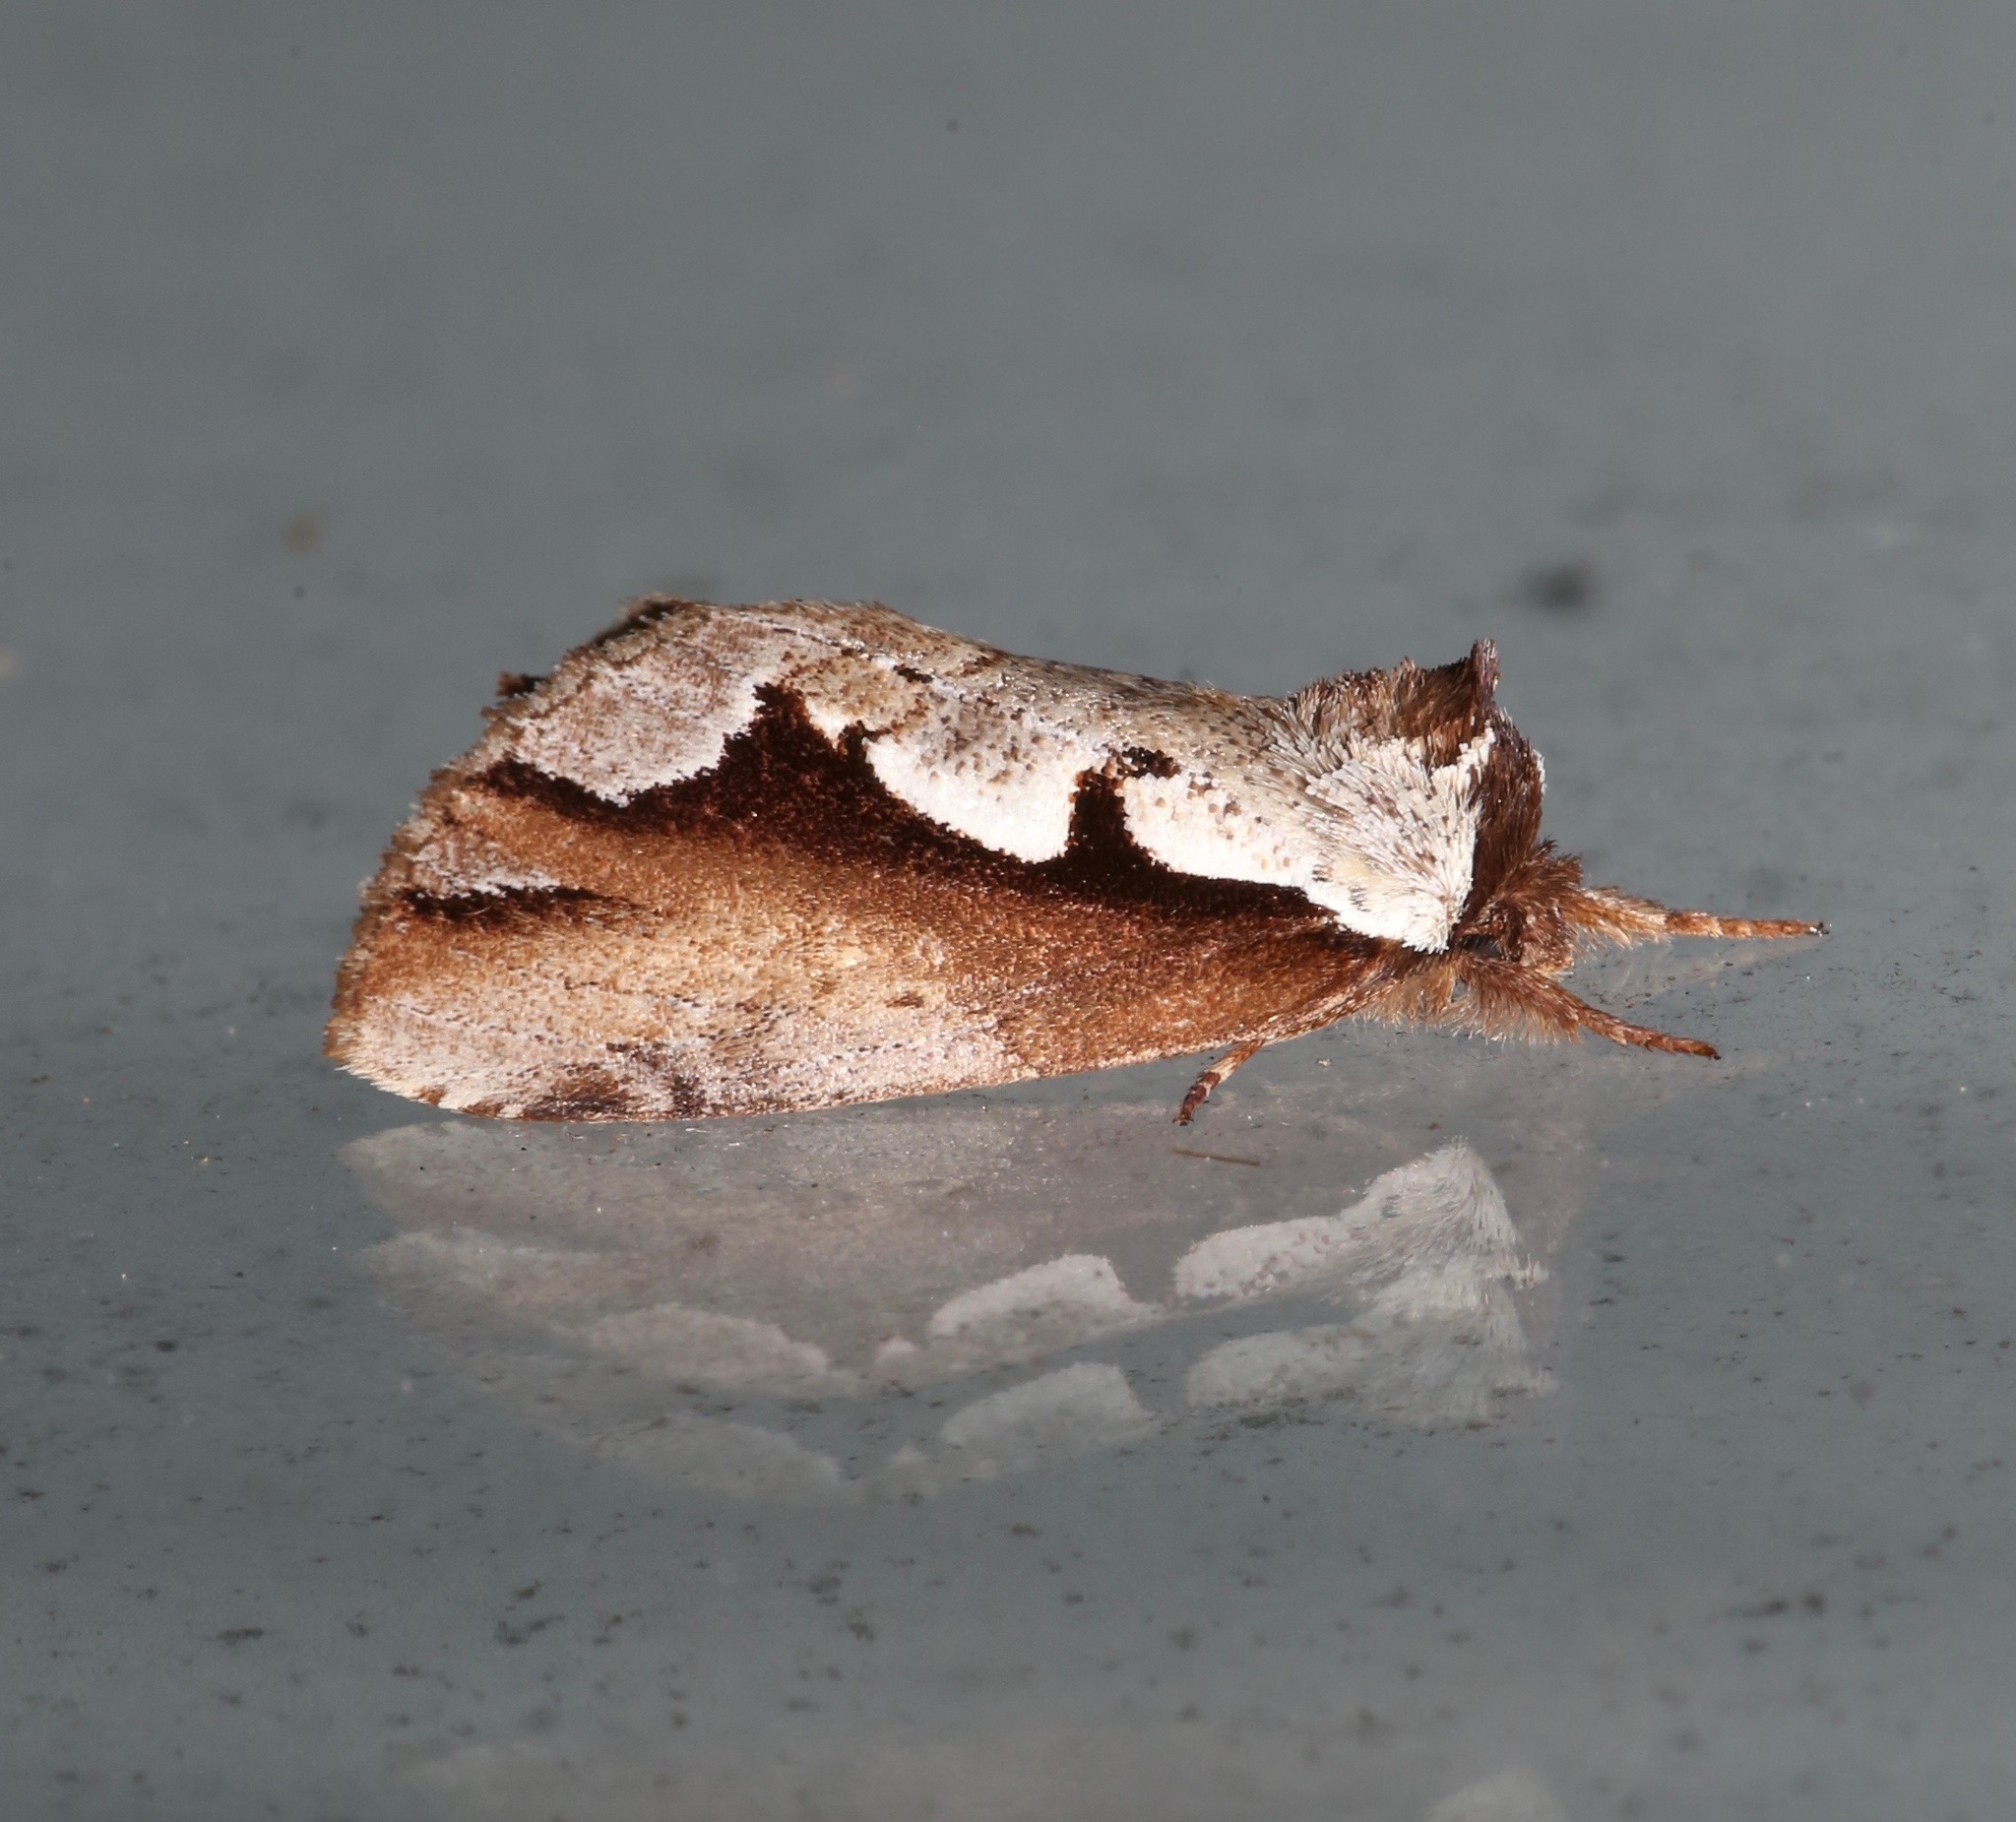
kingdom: Animalia
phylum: Arthropoda
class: Insecta
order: Lepidoptera
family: Notodontidae
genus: Nerice
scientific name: Nerice bidentata
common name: Double-toothed prominent
